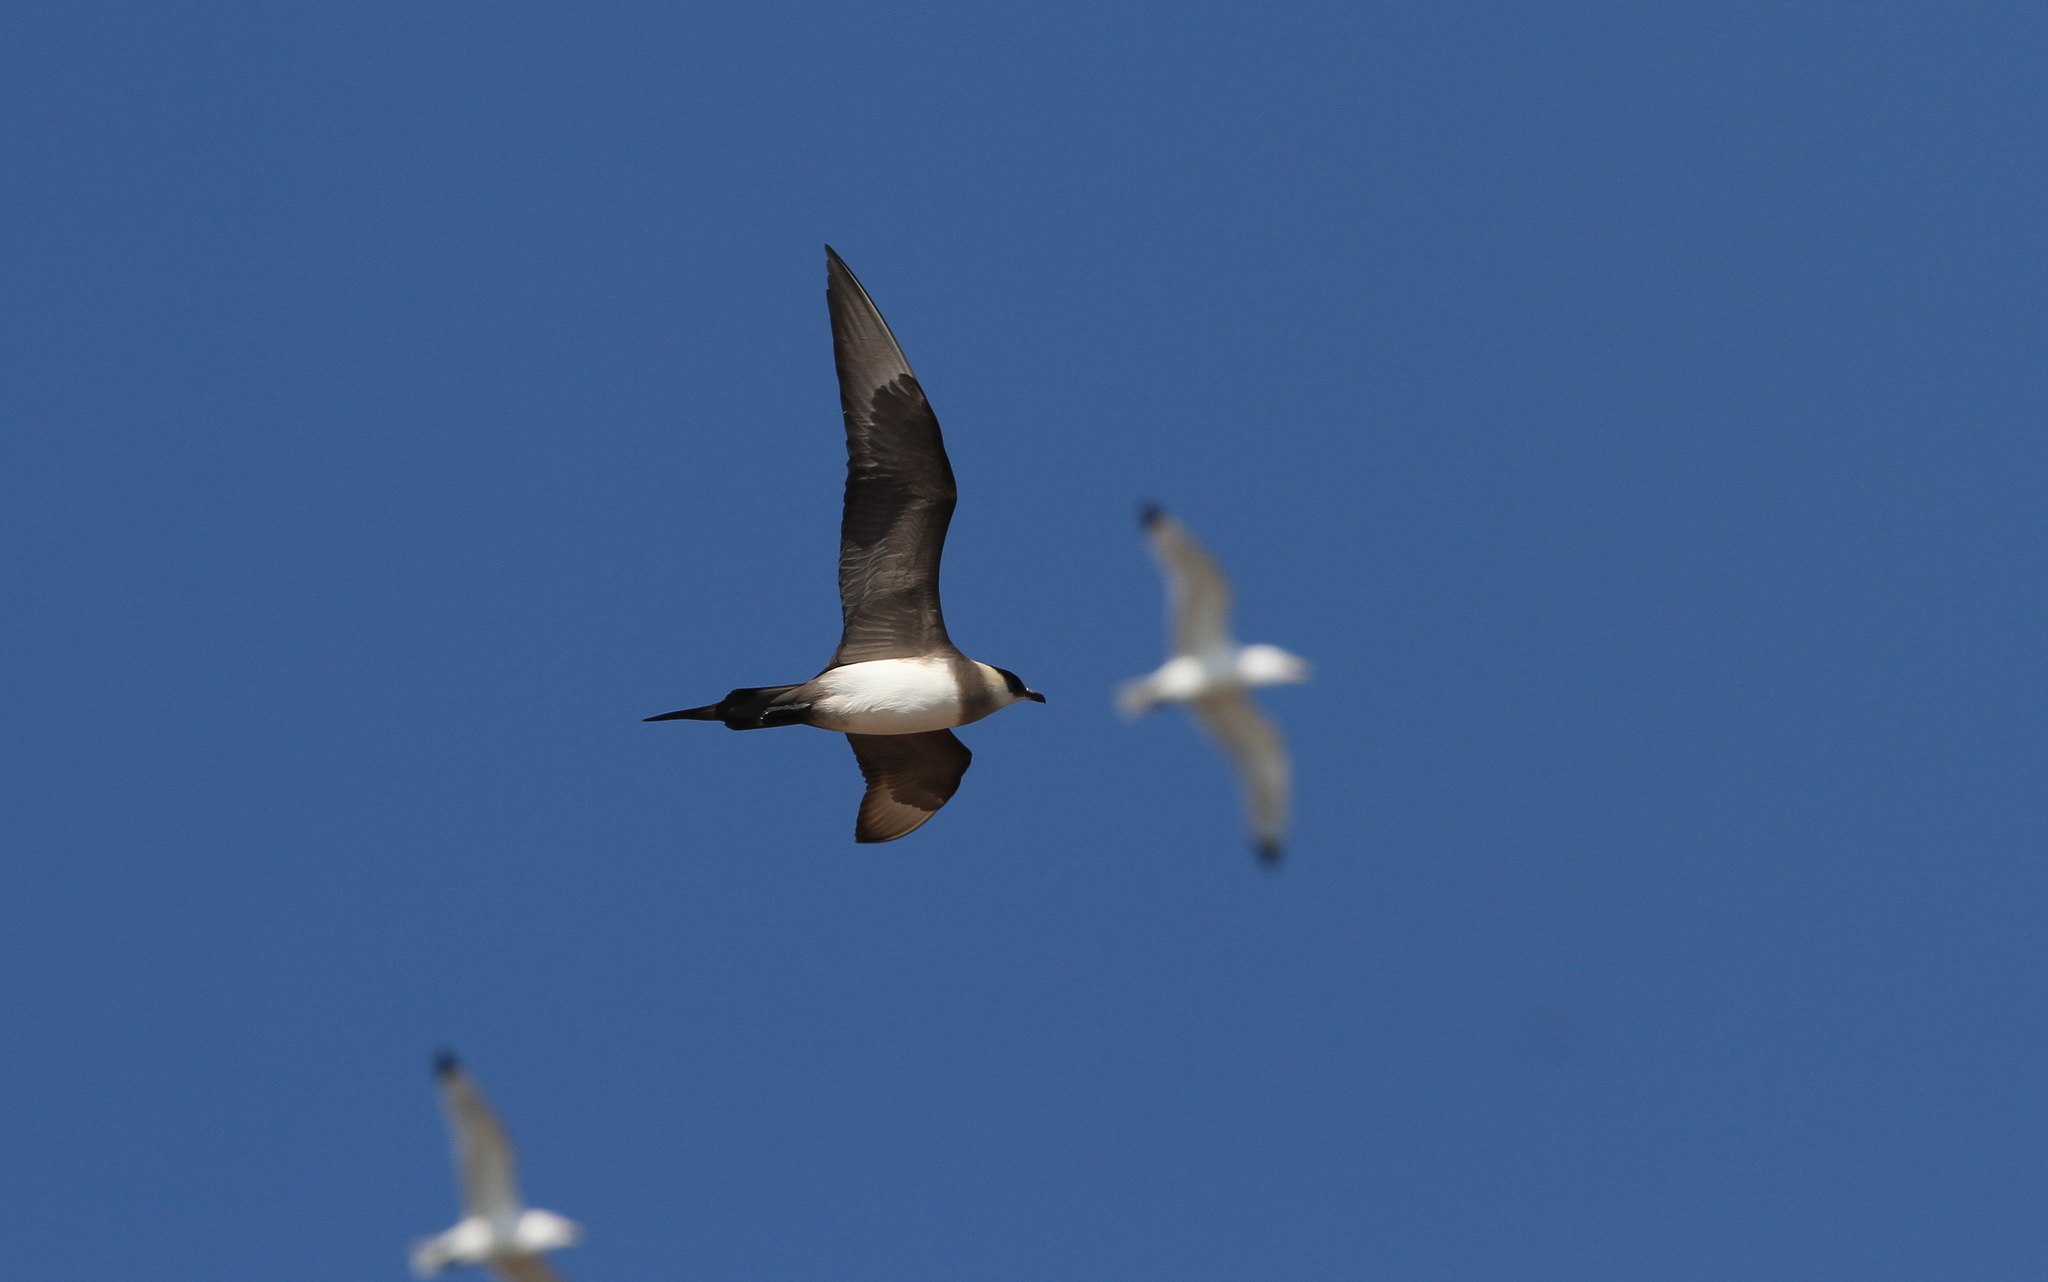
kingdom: Animalia
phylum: Chordata
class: Aves
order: Charadriiformes
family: Stercorariidae
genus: Stercorarius
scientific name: Stercorarius parasiticus
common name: Parasitic jaeger
